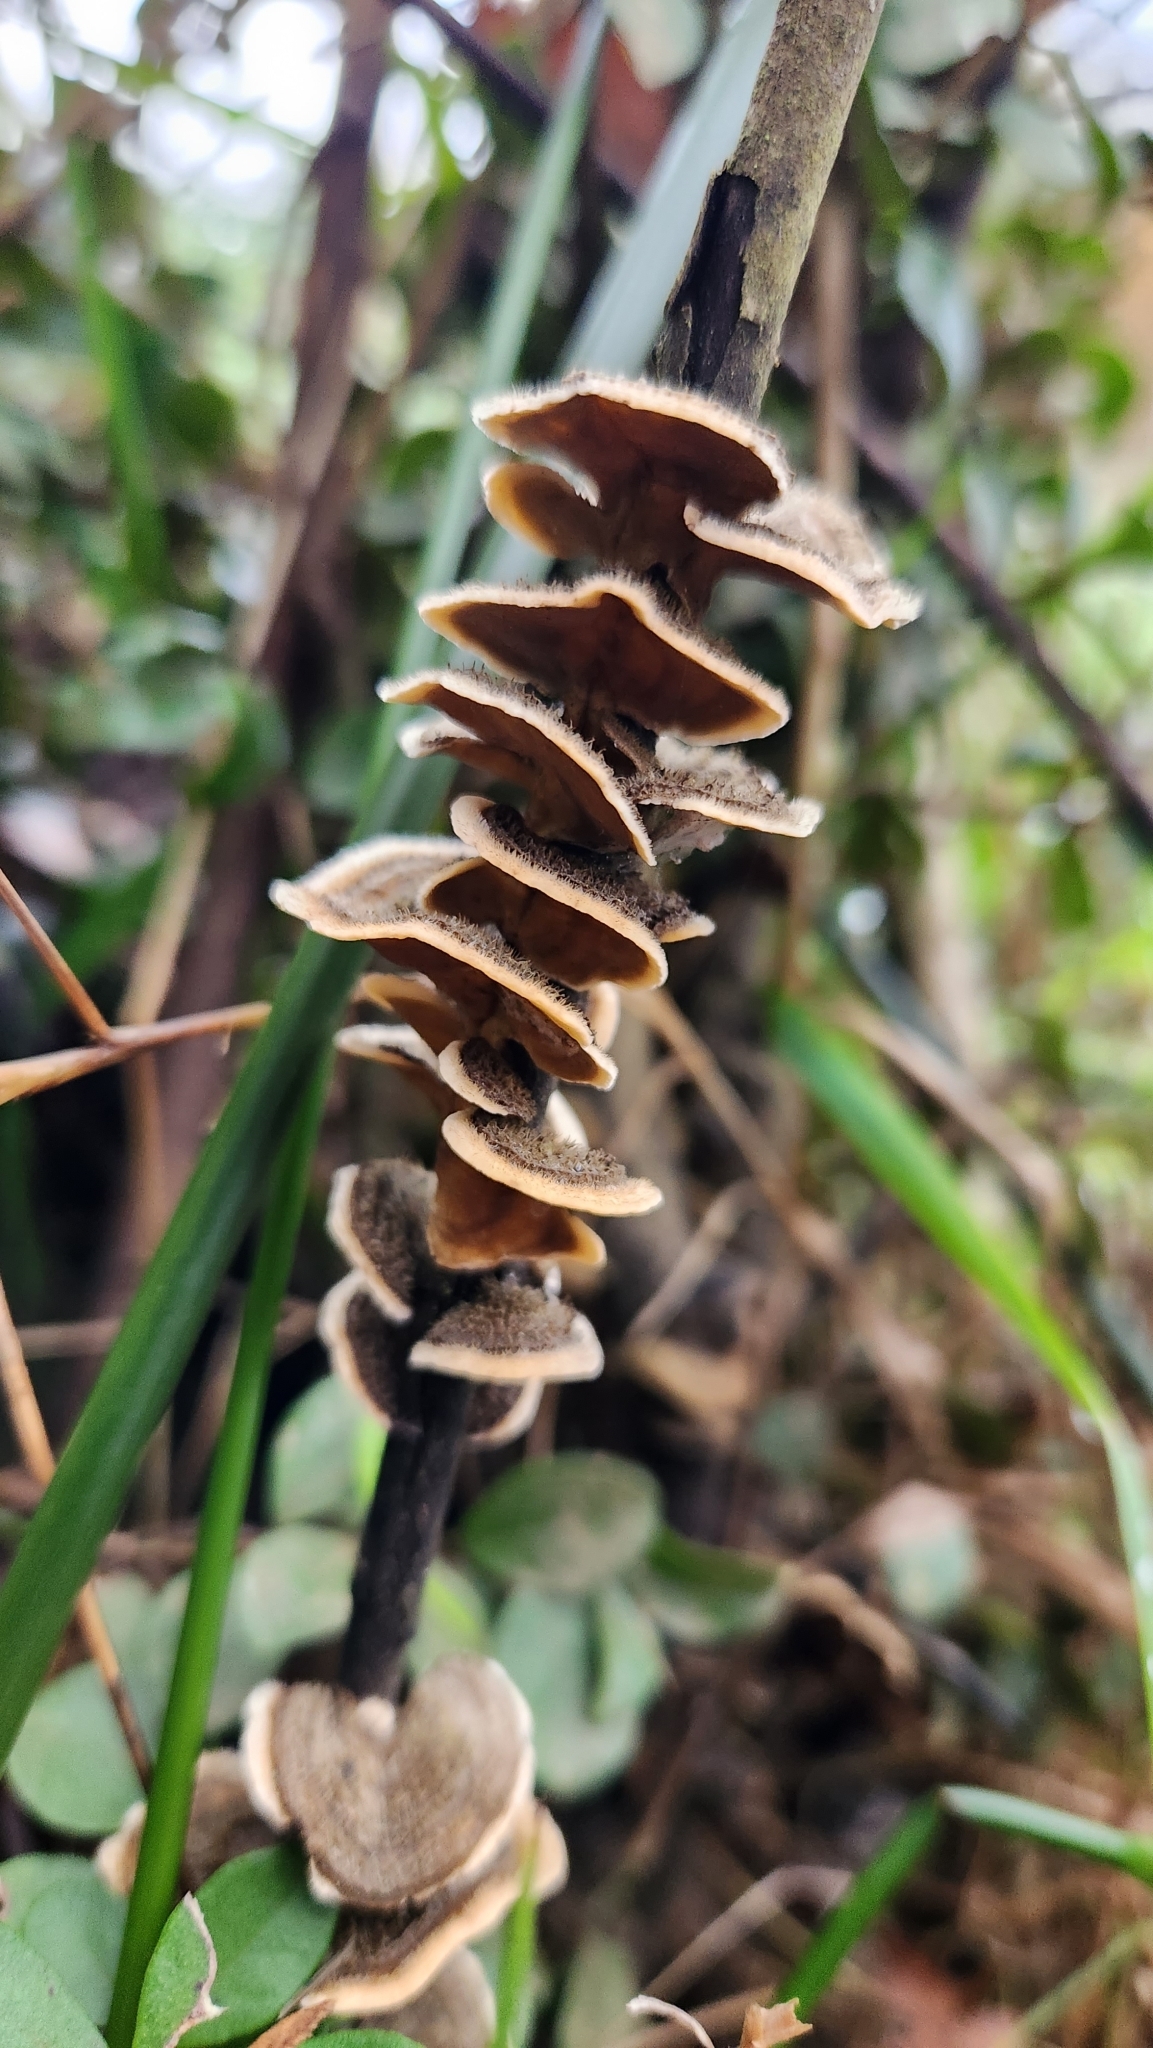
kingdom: Fungi
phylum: Basidiomycota
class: Agaricomycetes
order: Polyporales
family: Polyporaceae
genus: Trametes
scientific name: Trametes versicolor
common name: Turkeytail
